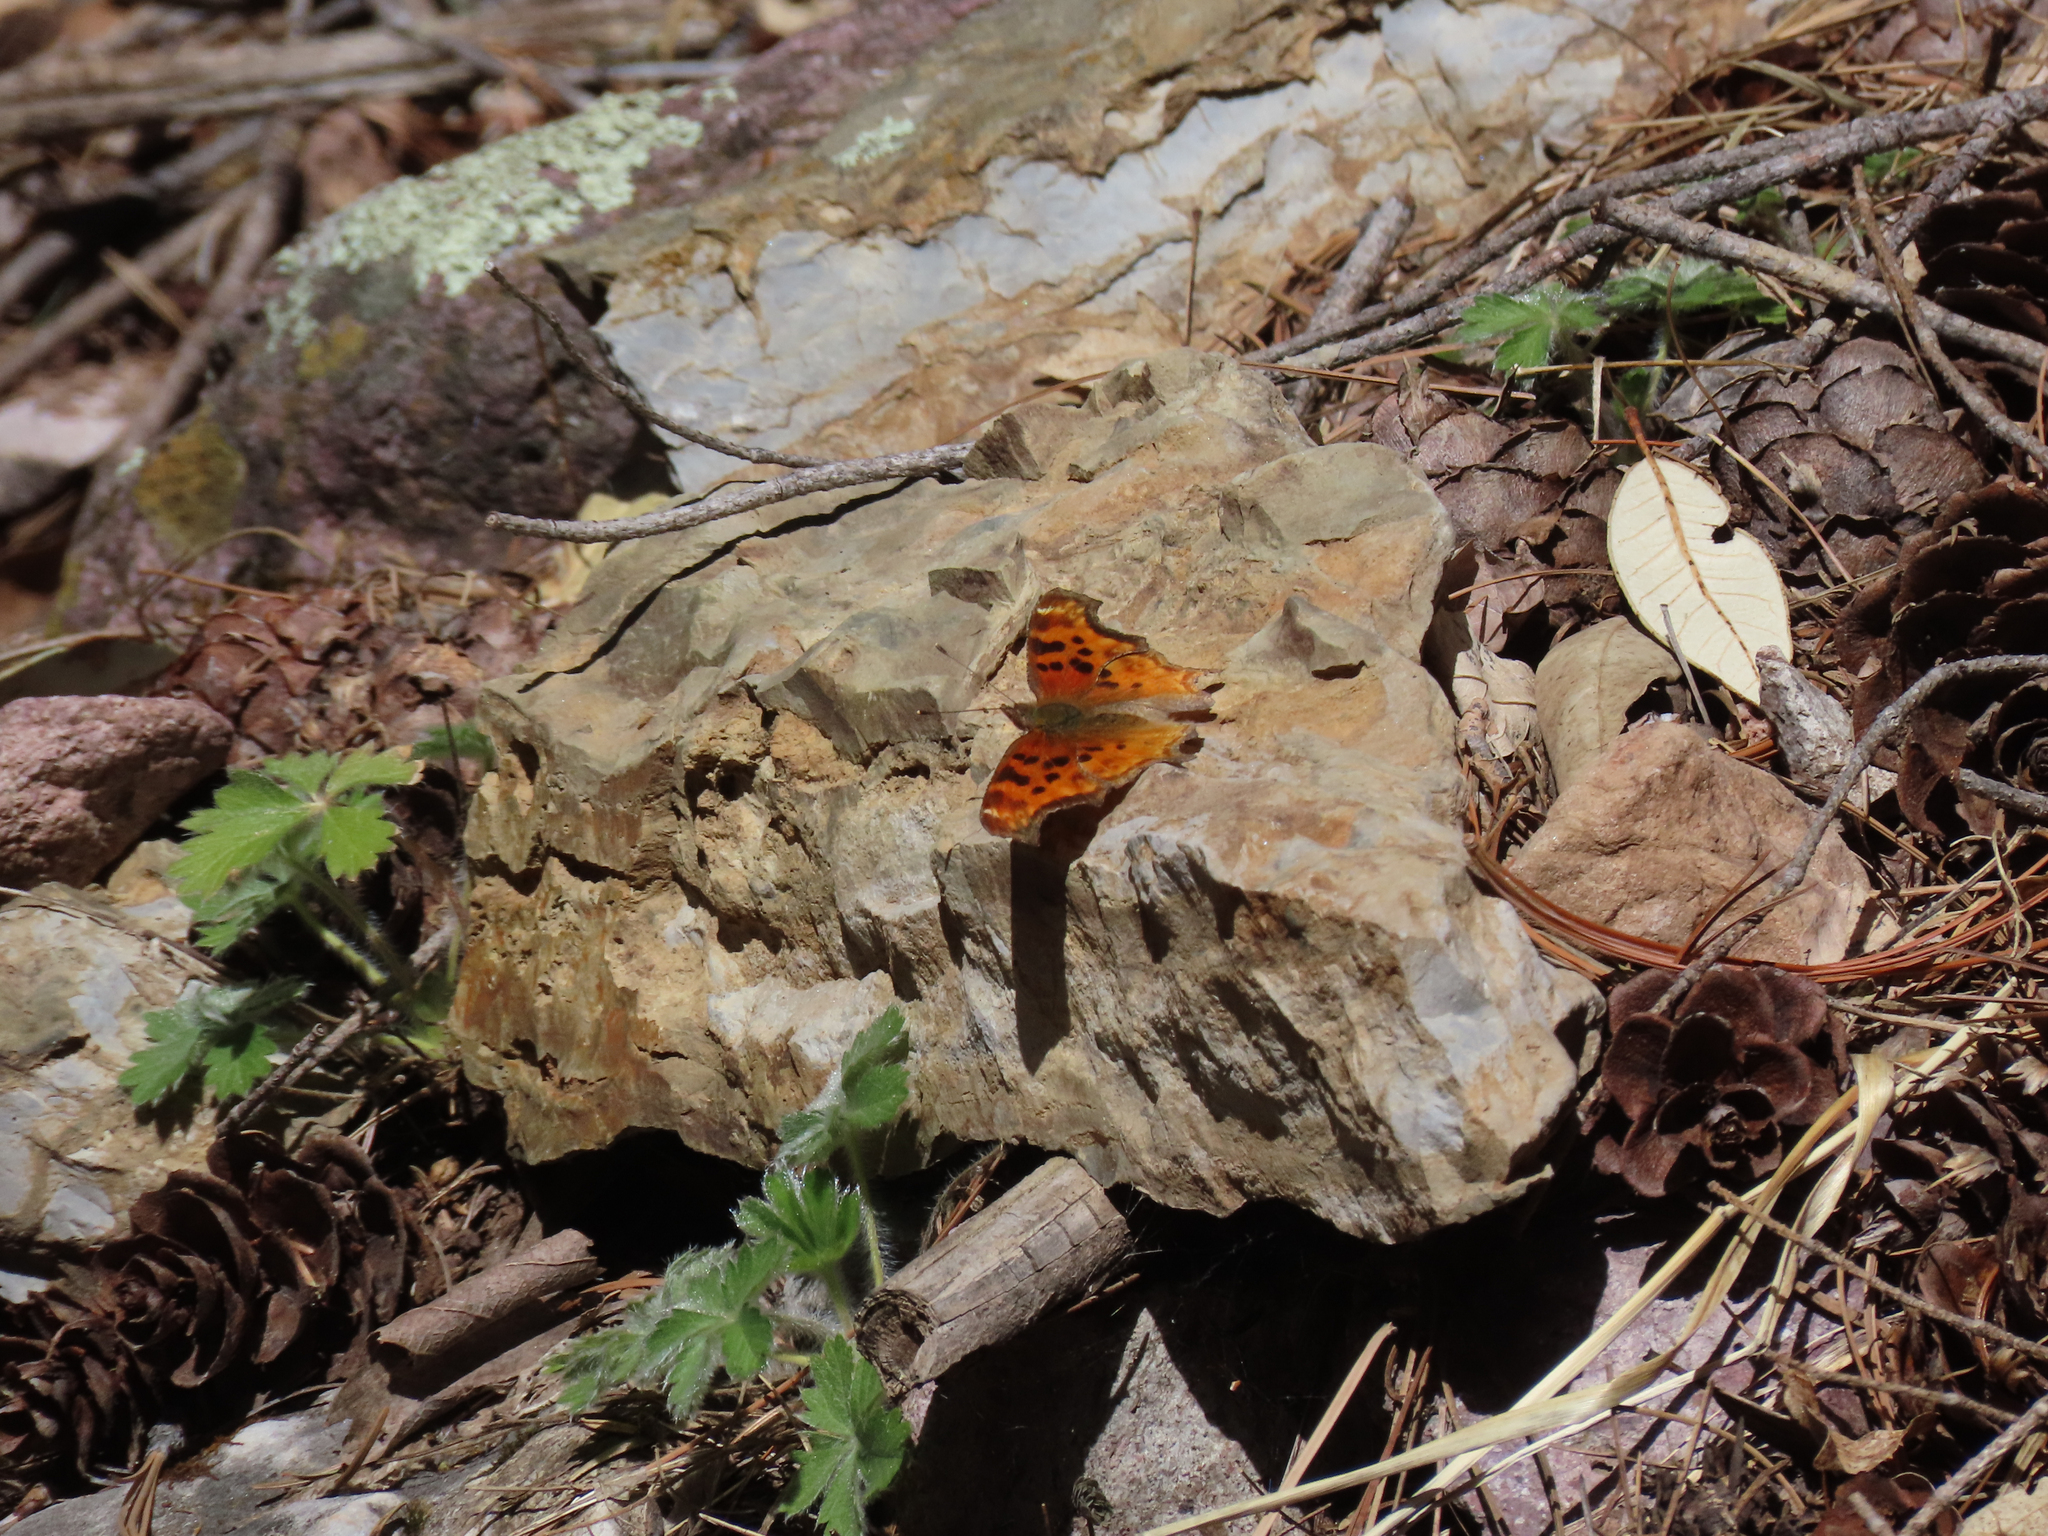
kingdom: Animalia
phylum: Arthropoda
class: Insecta
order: Lepidoptera
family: Nymphalidae
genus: Polygonia
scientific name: Polygonia satyrus
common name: Satyr angle wing
